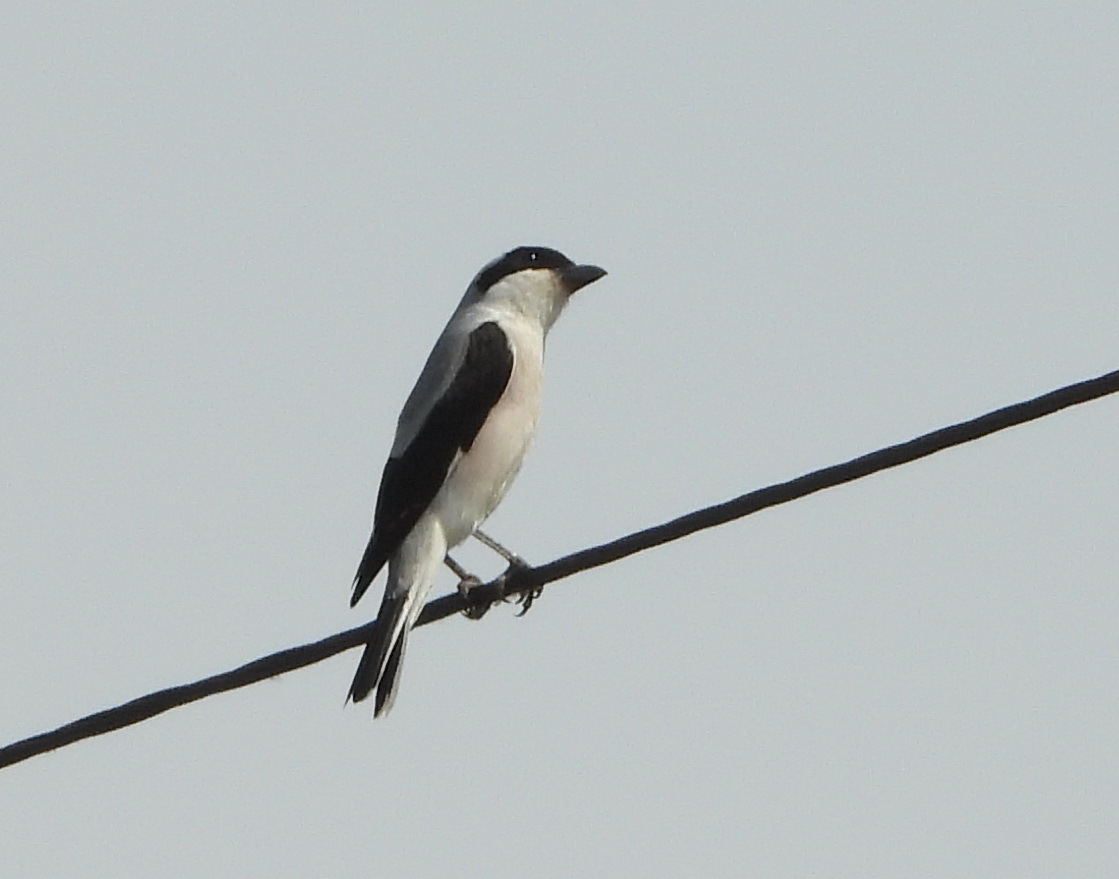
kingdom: Animalia
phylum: Chordata
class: Aves
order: Passeriformes
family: Laniidae
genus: Lanius
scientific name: Lanius minor
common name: Lesser grey shrike
